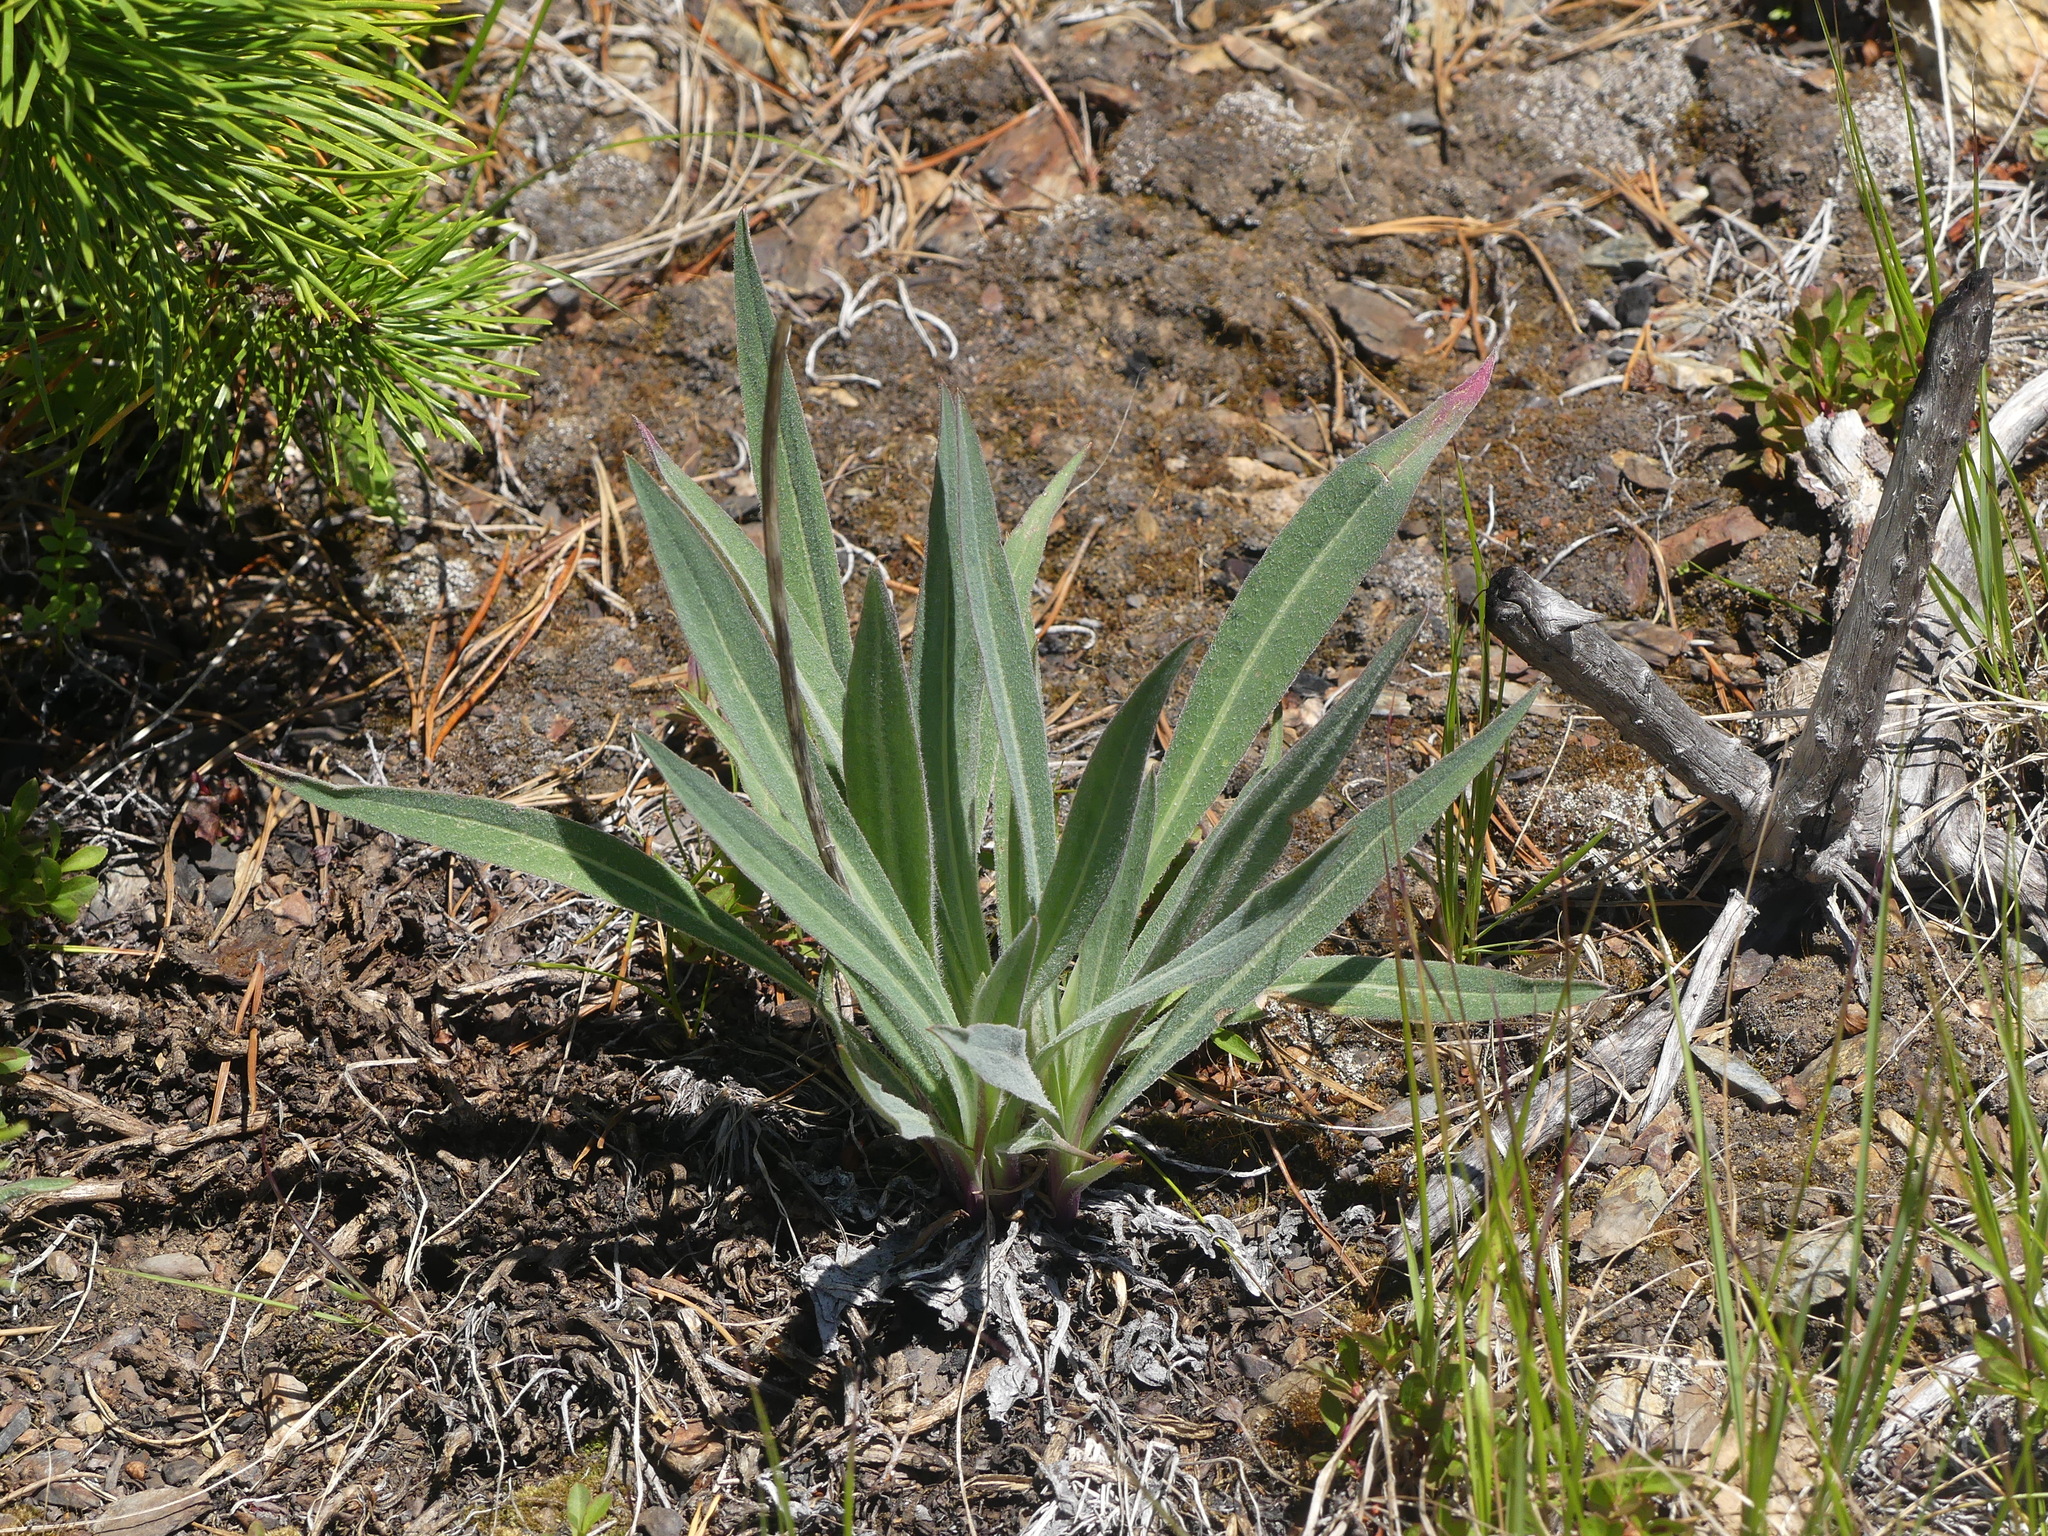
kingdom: Plantae
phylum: Tracheophyta
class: Magnoliopsida
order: Asterales
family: Asteraceae
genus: Agoseris
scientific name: Agoseris glauca
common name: Prairie agoseris
